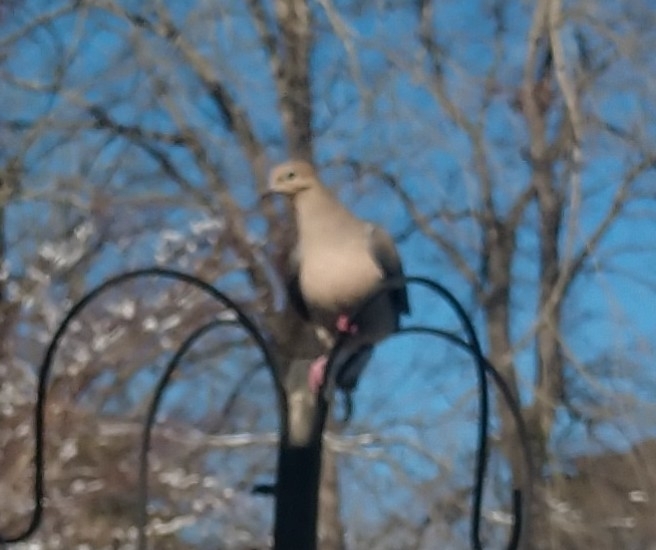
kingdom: Animalia
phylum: Chordata
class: Aves
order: Columbiformes
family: Columbidae
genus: Zenaida
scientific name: Zenaida macroura
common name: Mourning dove
